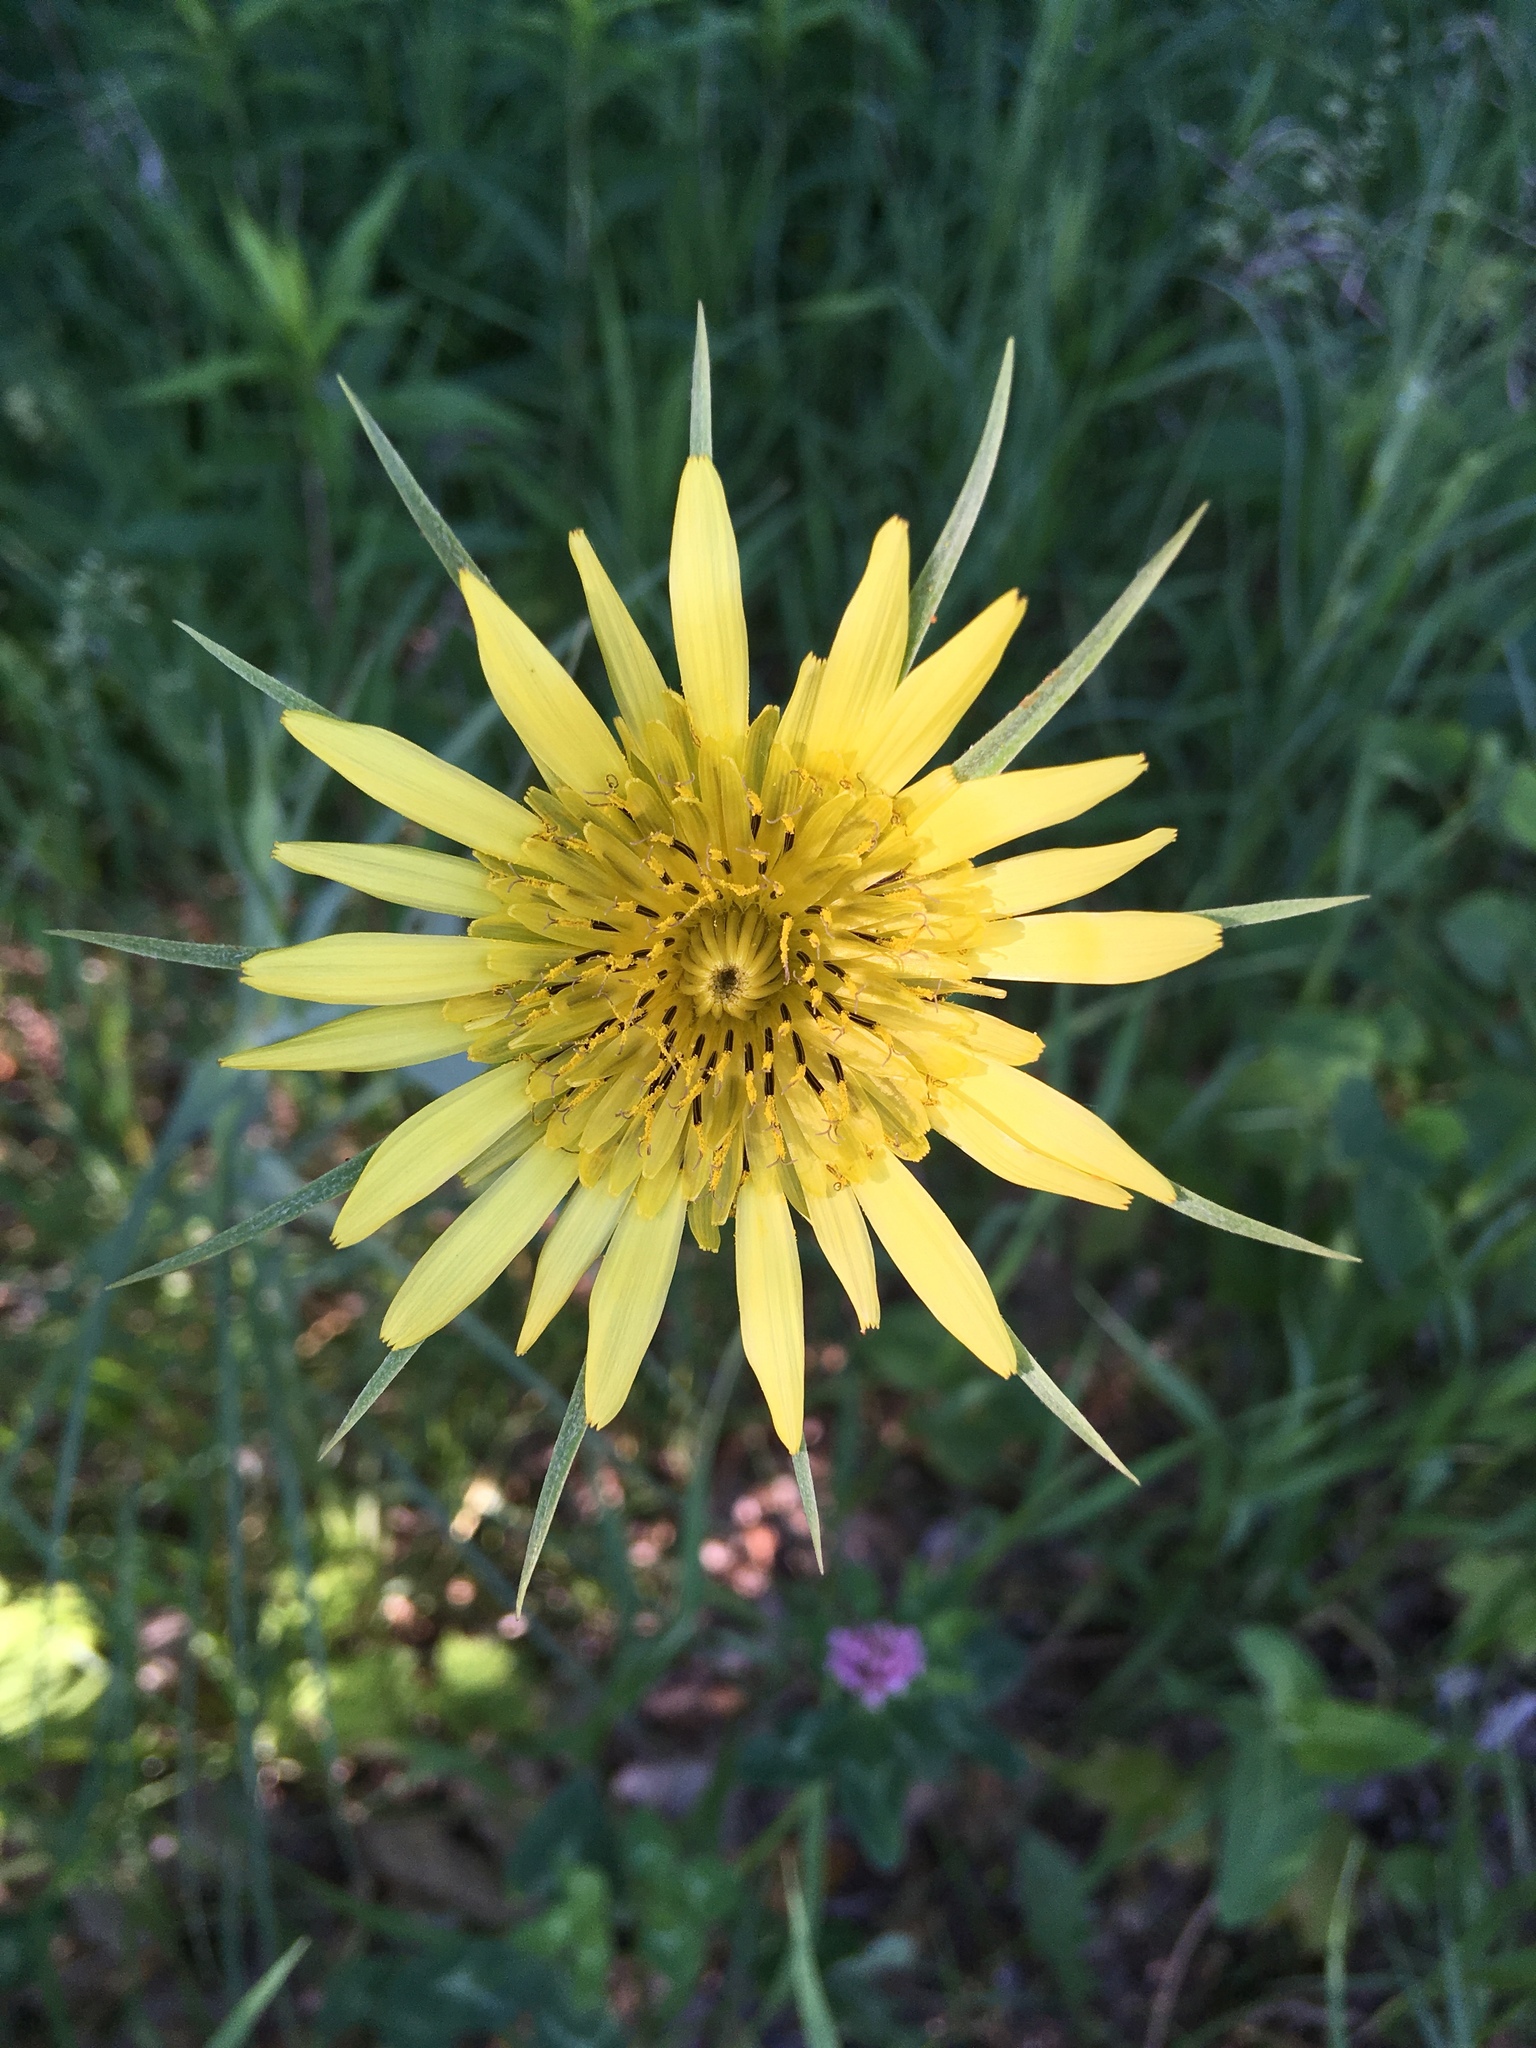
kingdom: Plantae
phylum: Tracheophyta
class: Magnoliopsida
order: Asterales
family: Asteraceae
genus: Tragopogon
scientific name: Tragopogon dubius
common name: Yellow salsify
